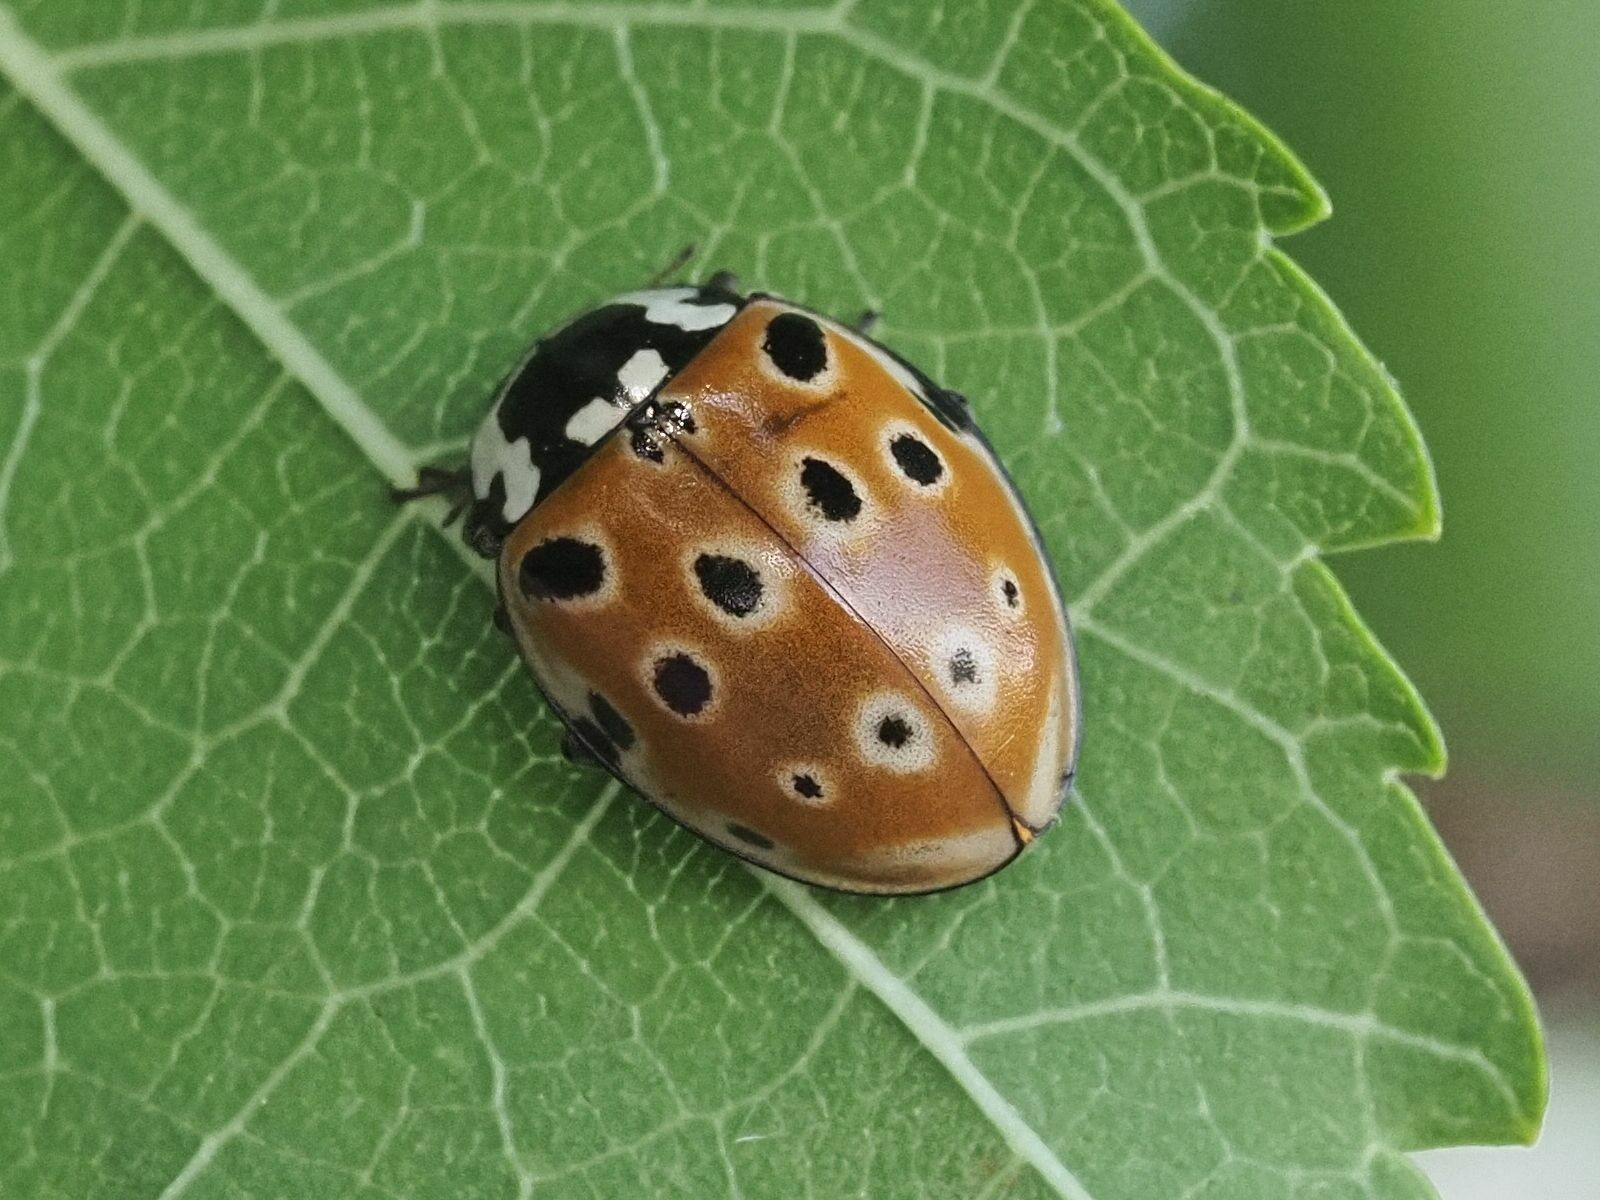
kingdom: Animalia
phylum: Arthropoda
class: Insecta
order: Coleoptera
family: Coccinellidae
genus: Anatis
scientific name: Anatis ocellata
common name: Eyed ladybird
